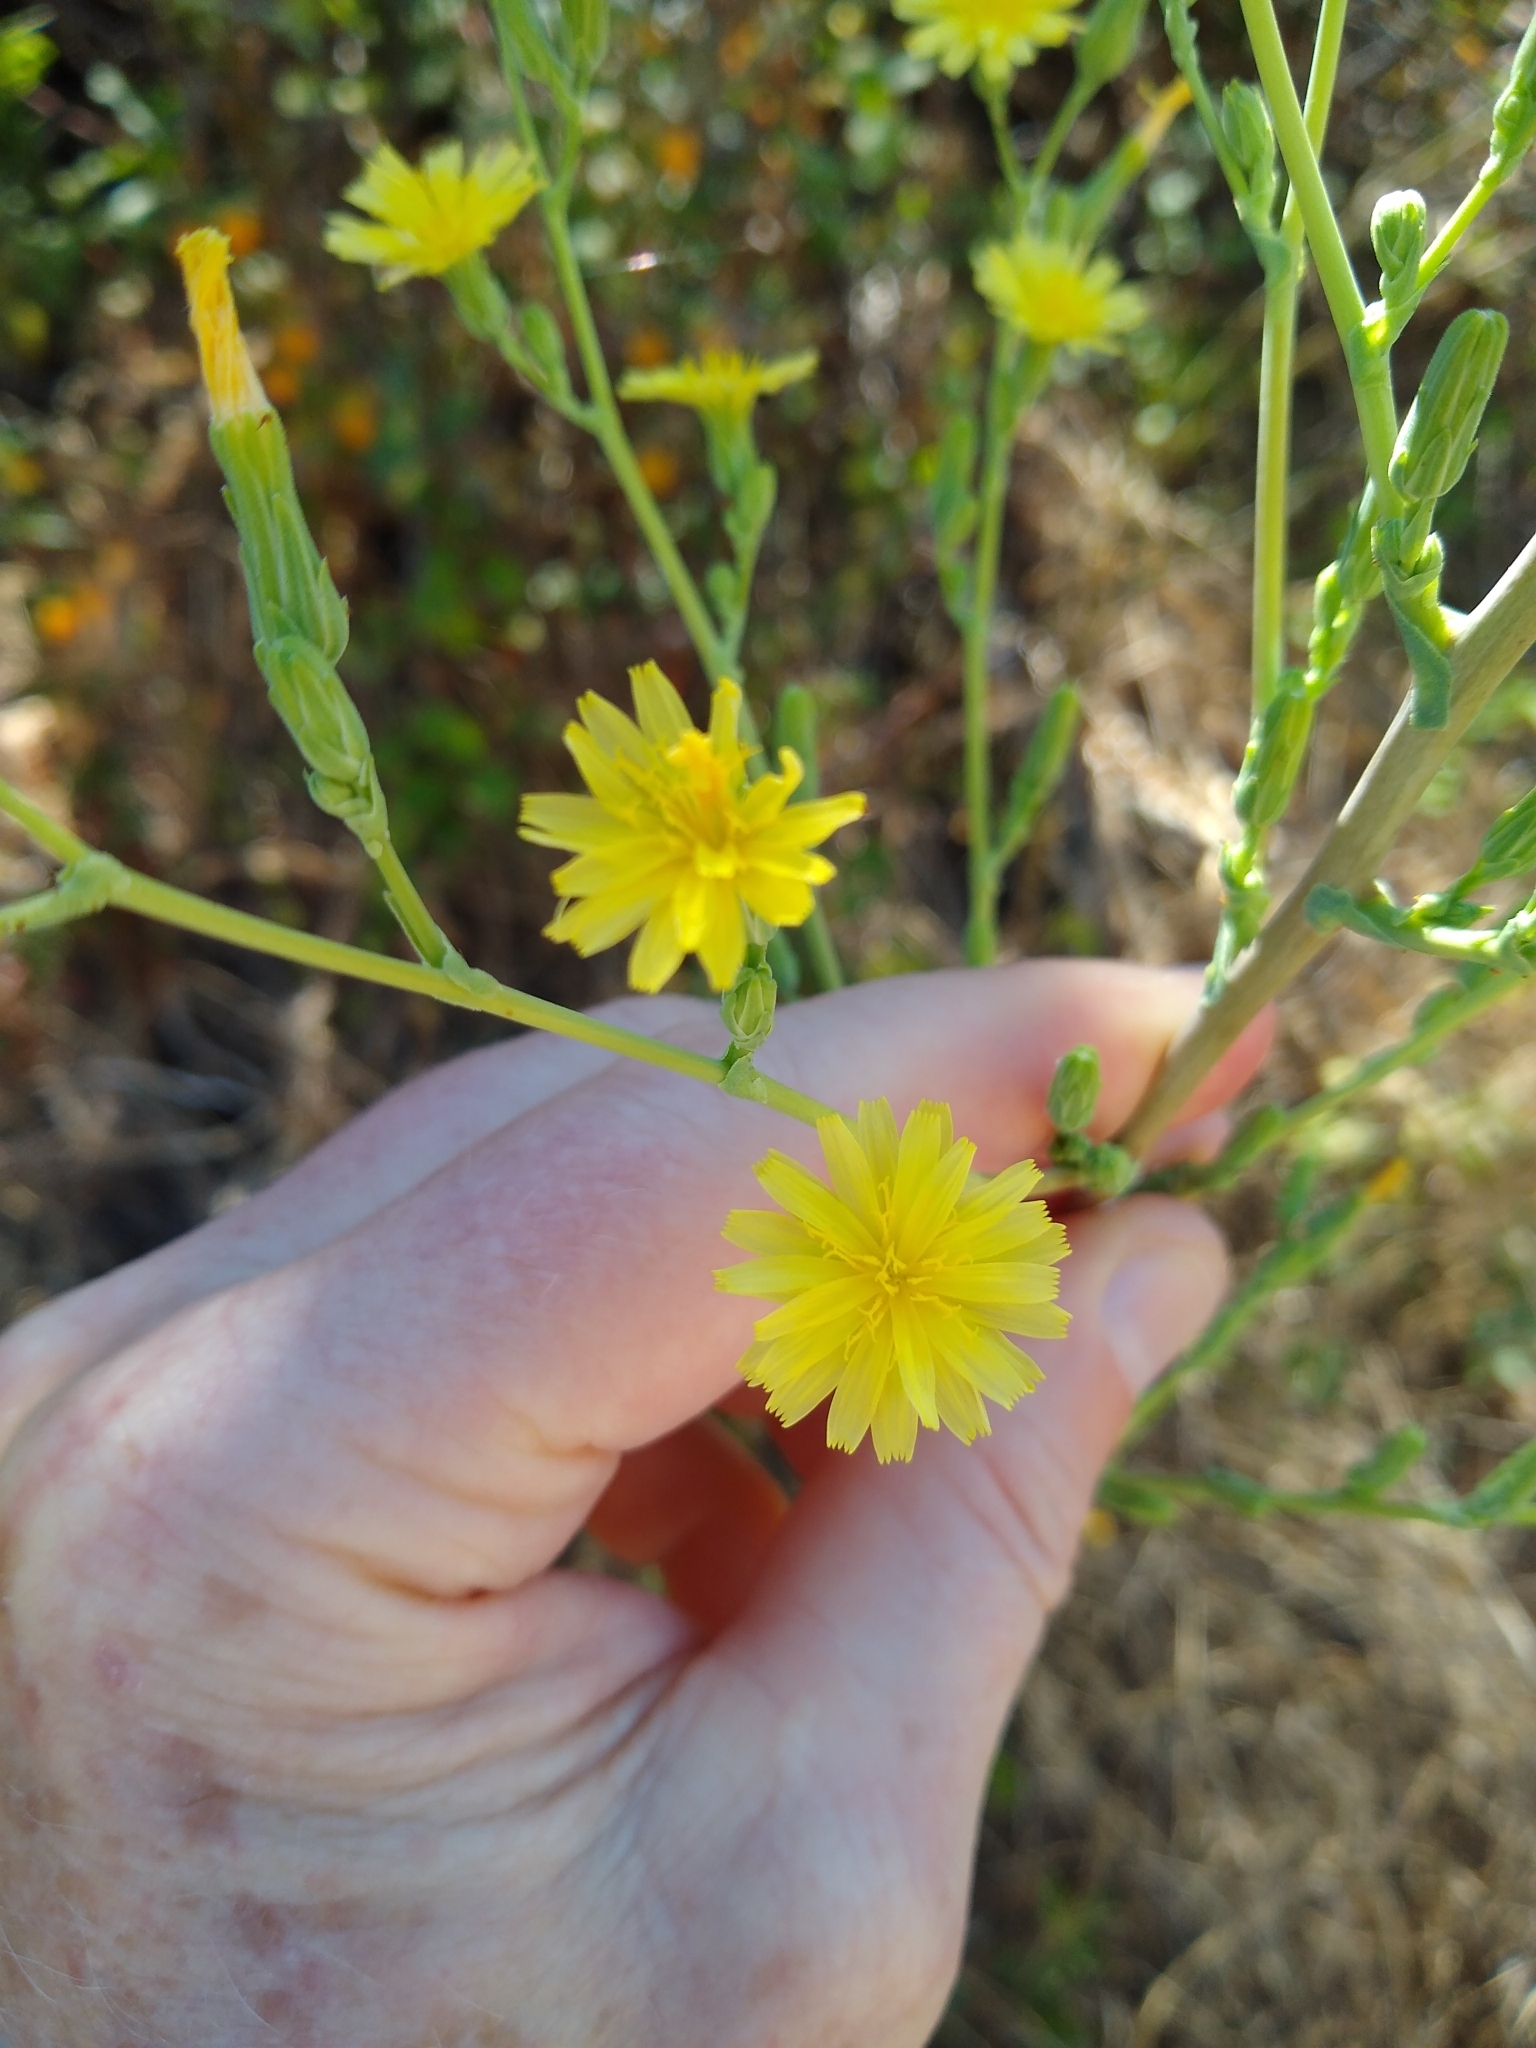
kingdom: Plantae
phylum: Tracheophyta
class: Magnoliopsida
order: Asterales
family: Asteraceae
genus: Lactuca
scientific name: Lactuca virosa
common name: Great lettuce
